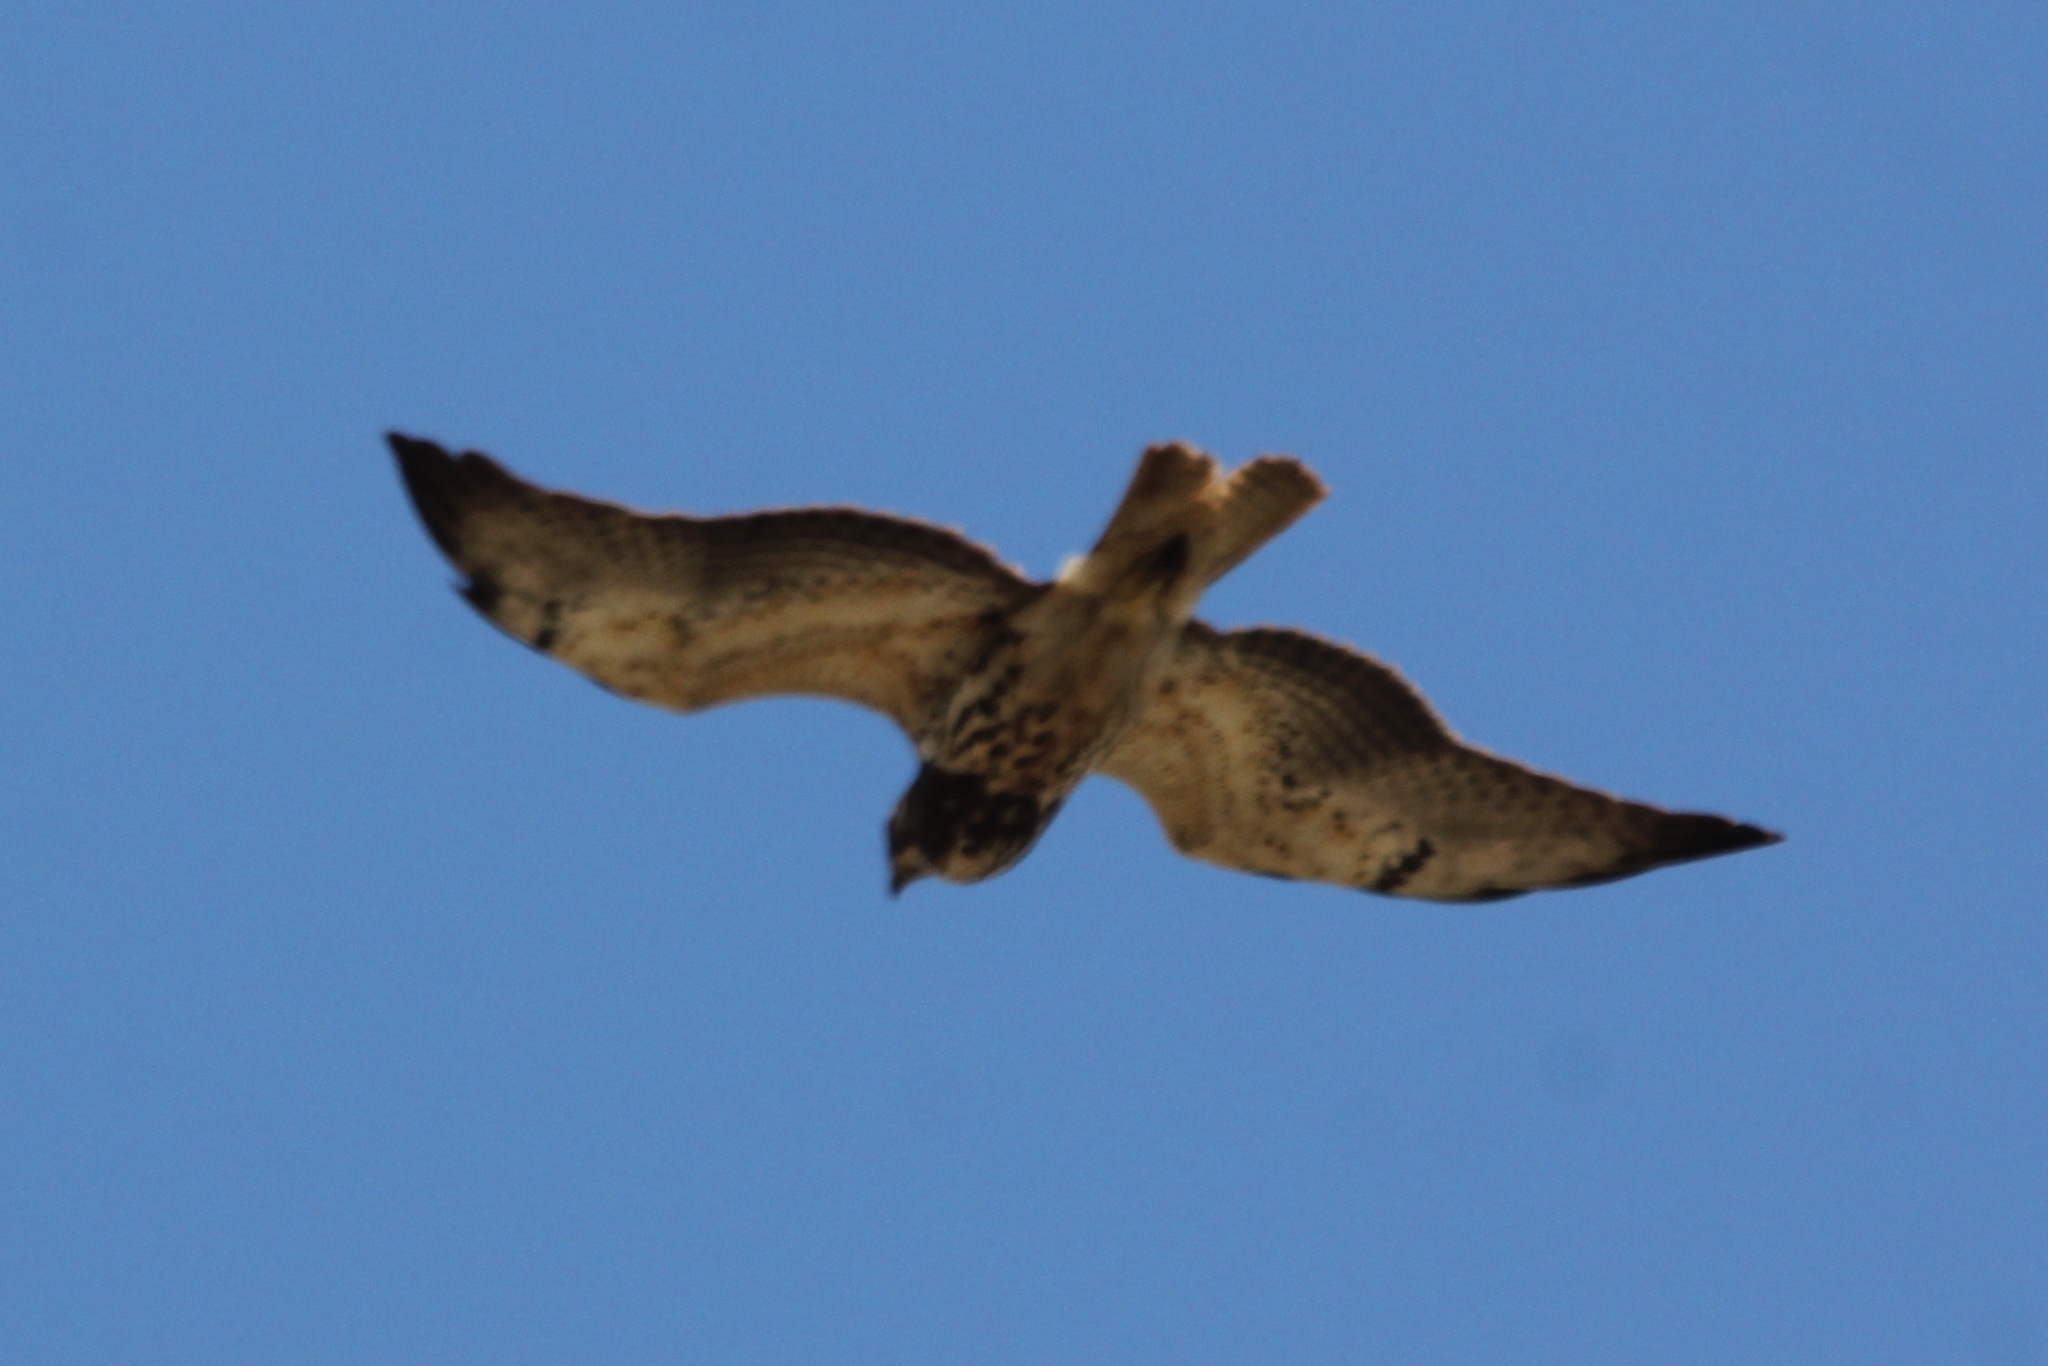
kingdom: Animalia
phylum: Chordata
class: Aves
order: Accipitriformes
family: Accipitridae
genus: Buteo
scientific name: Buteo swainsoni
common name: Swainson's hawk
